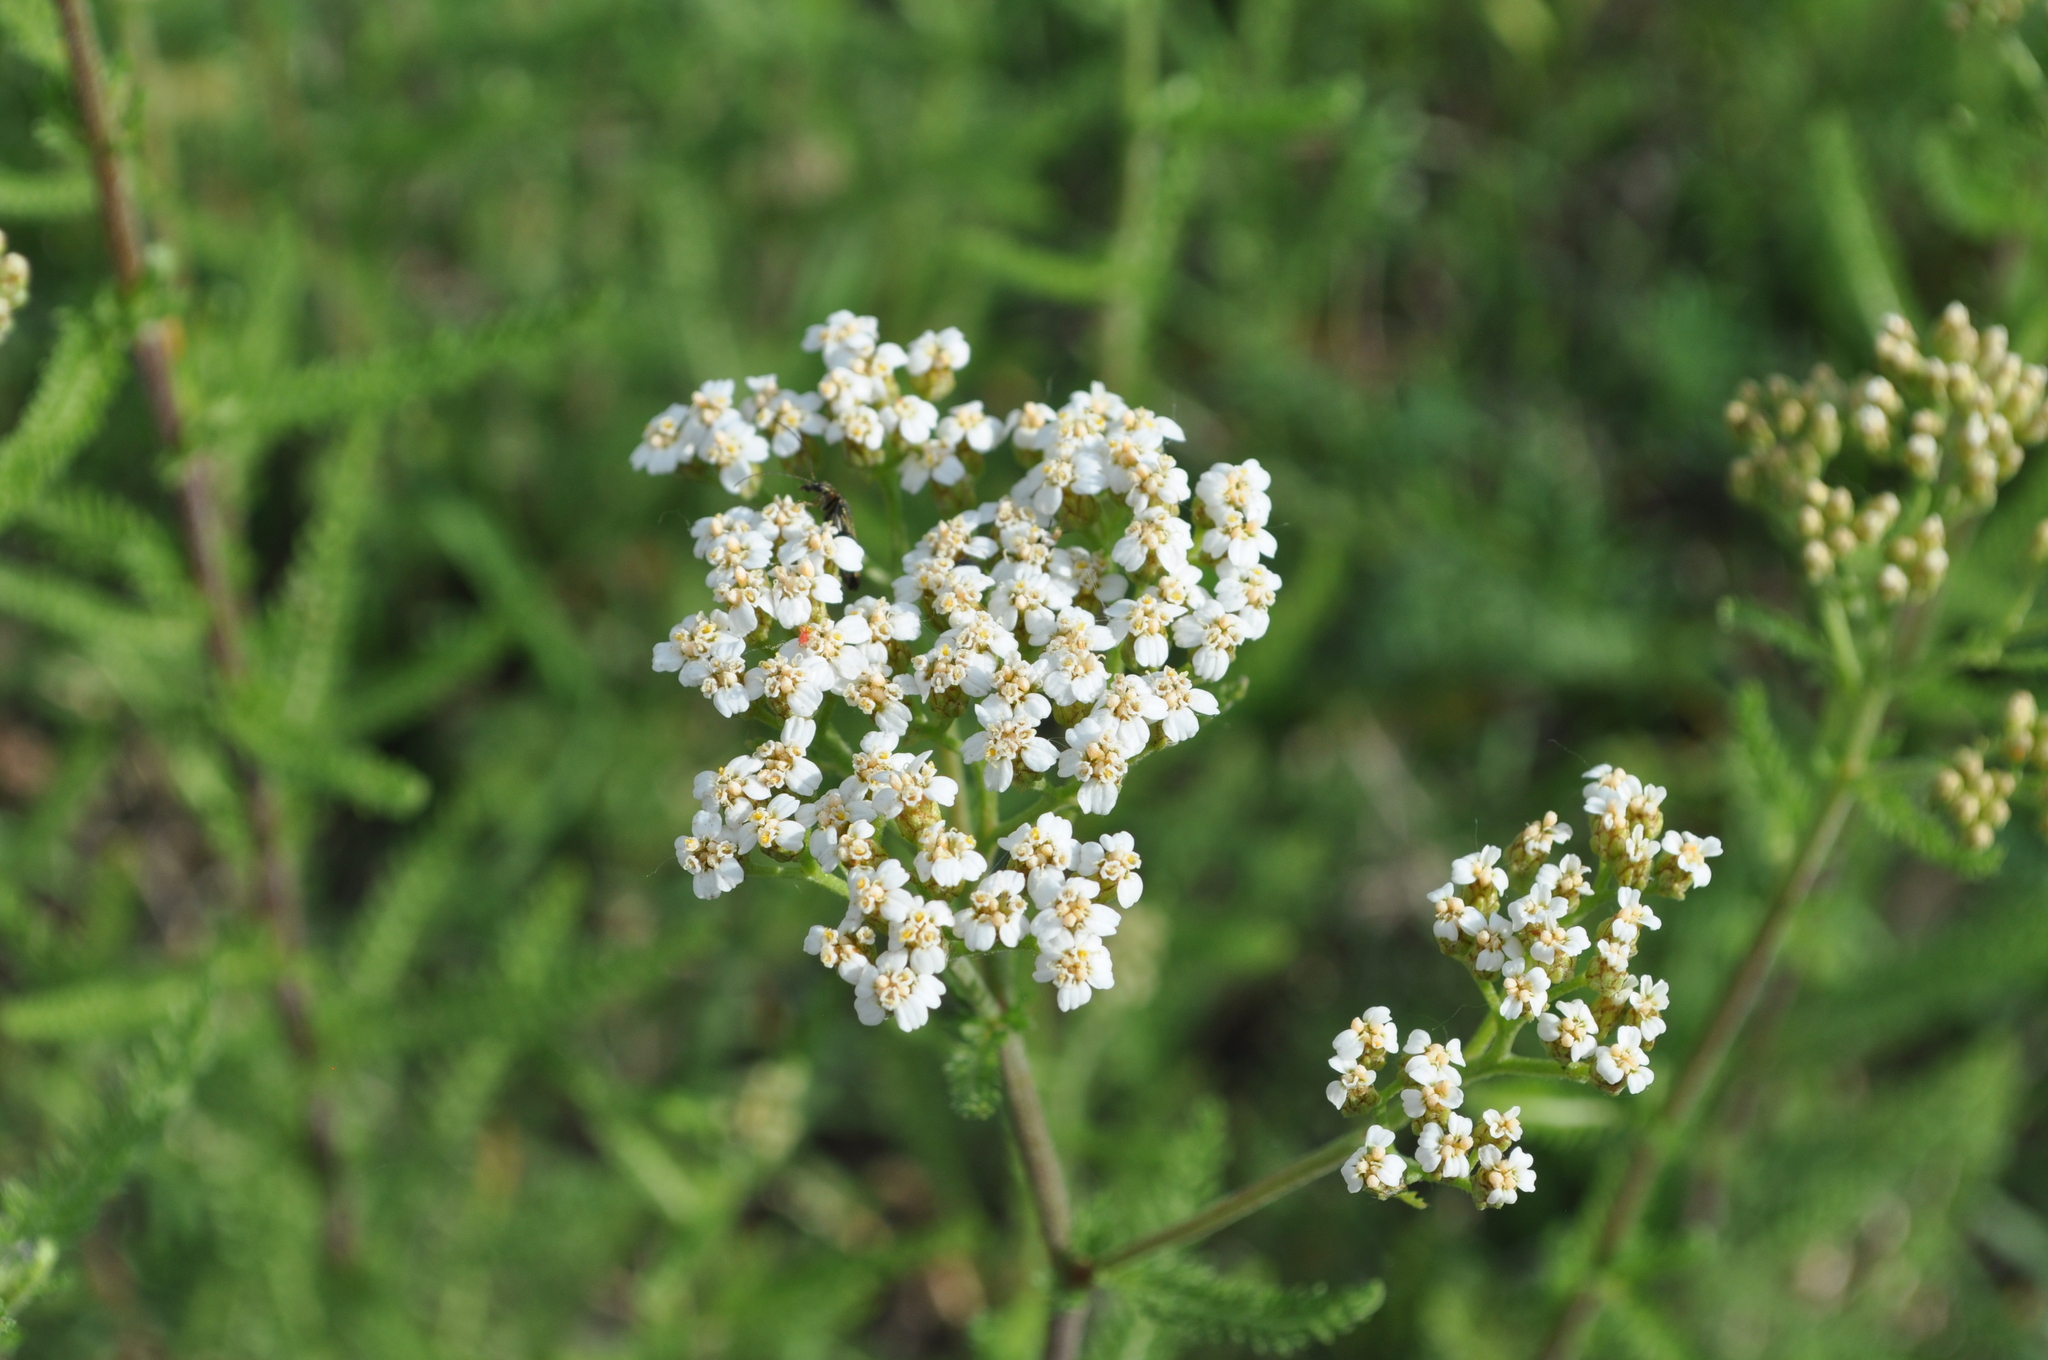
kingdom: Plantae
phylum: Tracheophyta
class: Magnoliopsida
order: Asterales
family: Asteraceae
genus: Achillea
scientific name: Achillea millefolium
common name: Yarrow
